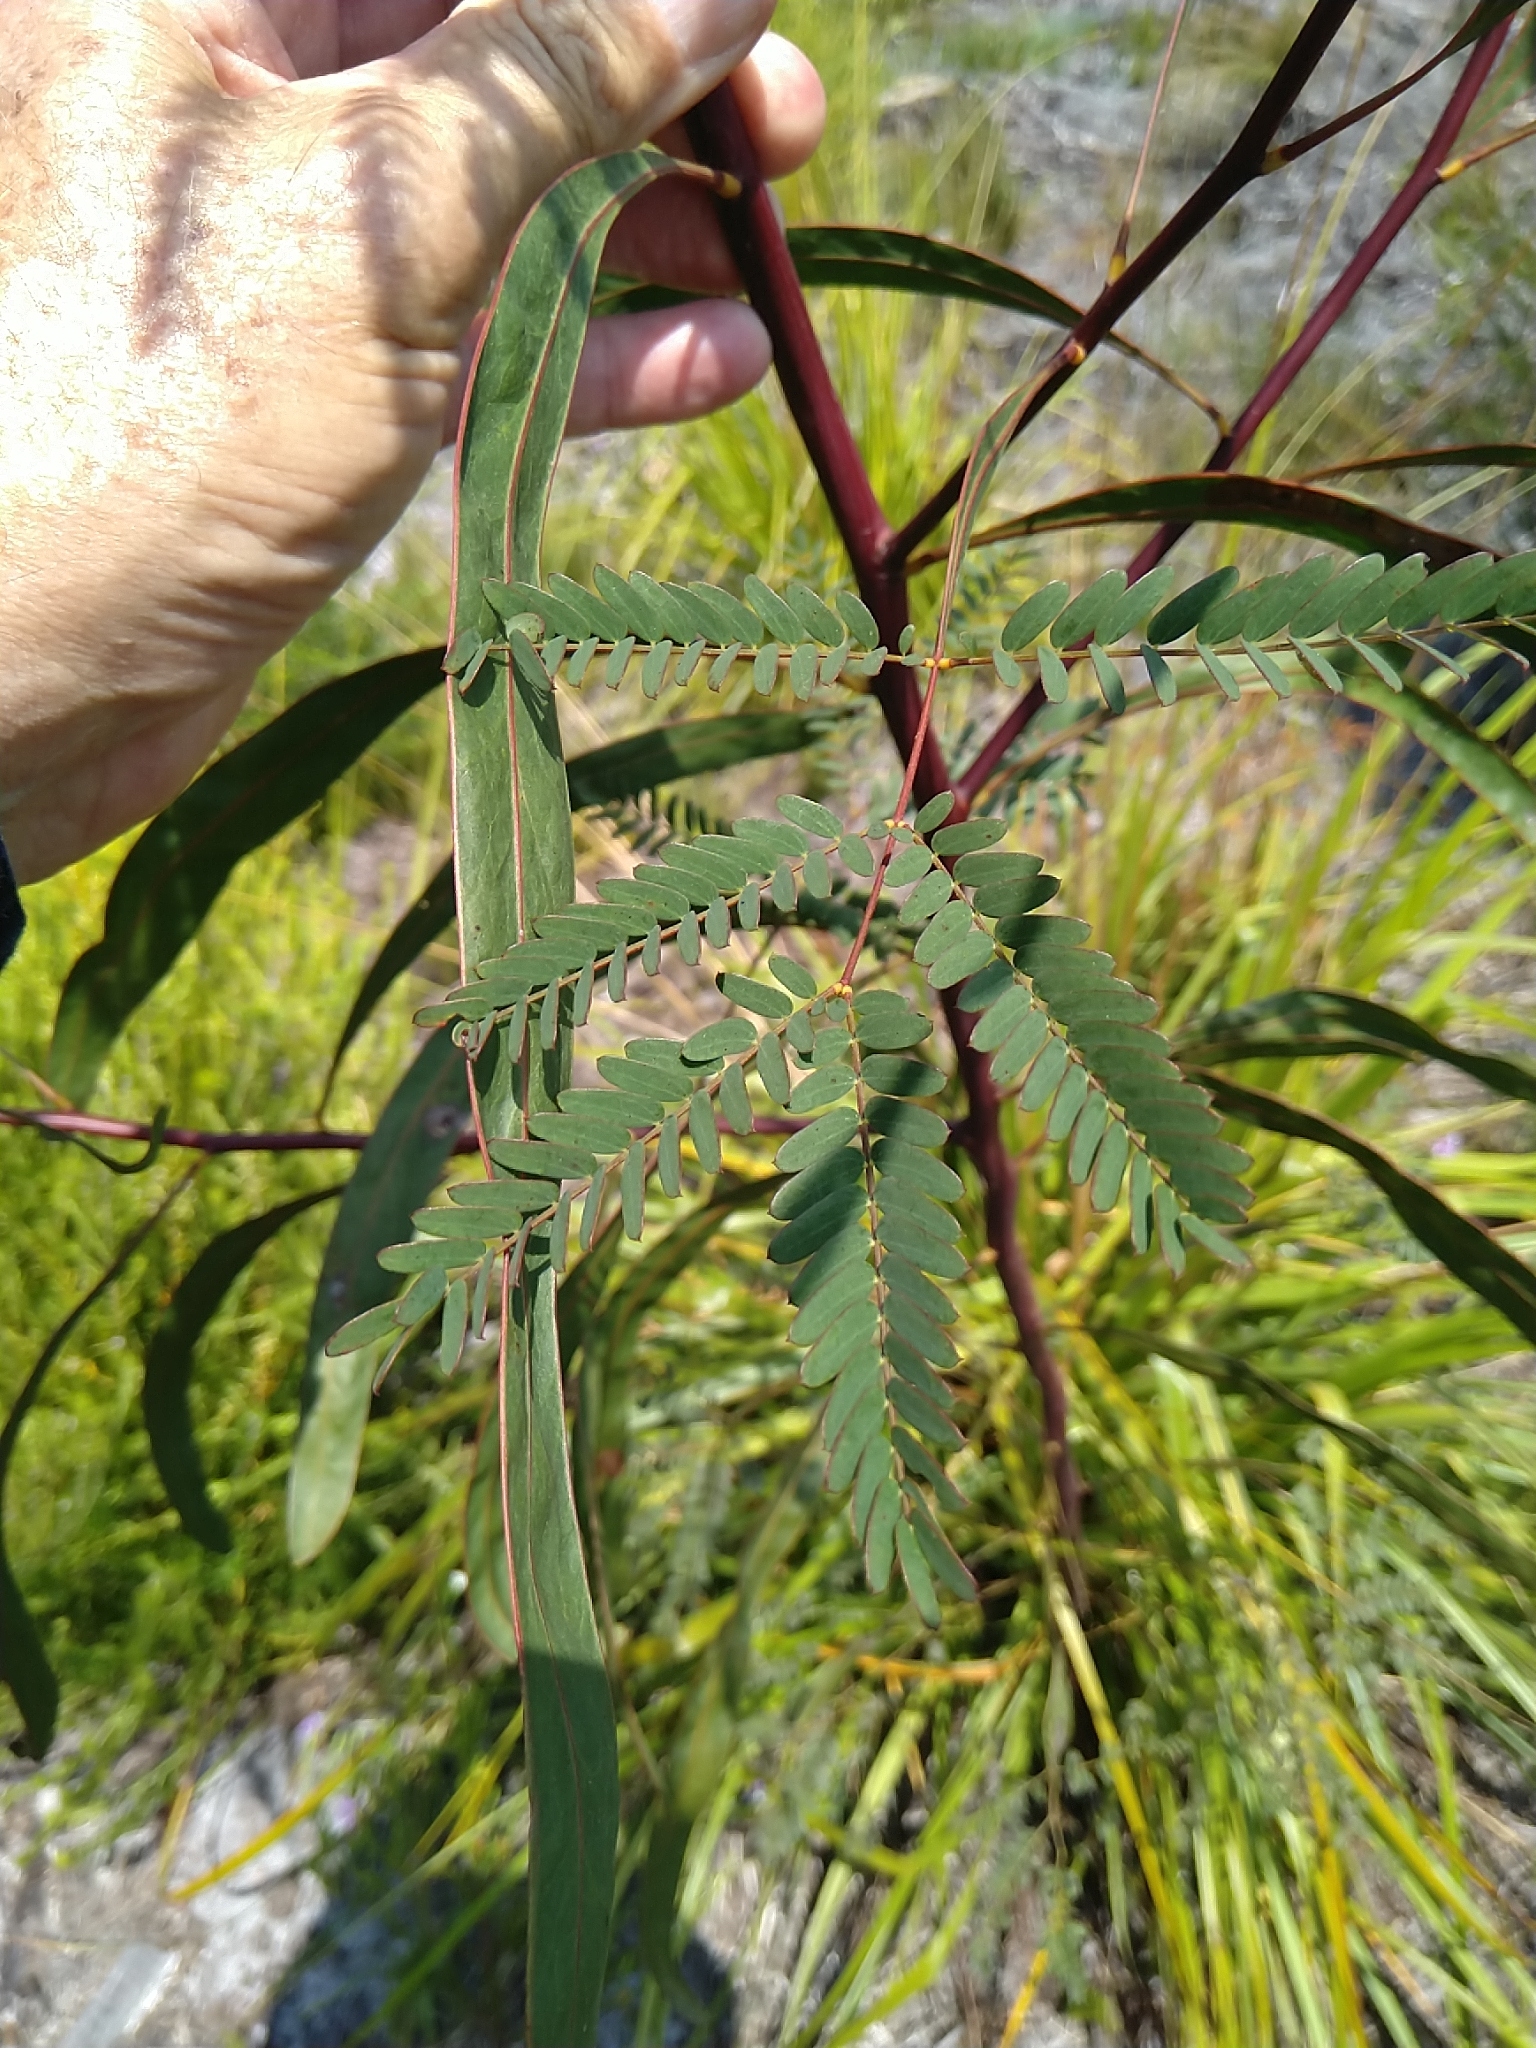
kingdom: Plantae
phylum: Tracheophyta
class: Magnoliopsida
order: Fabales
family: Fabaceae
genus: Acacia
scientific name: Acacia attenuata
